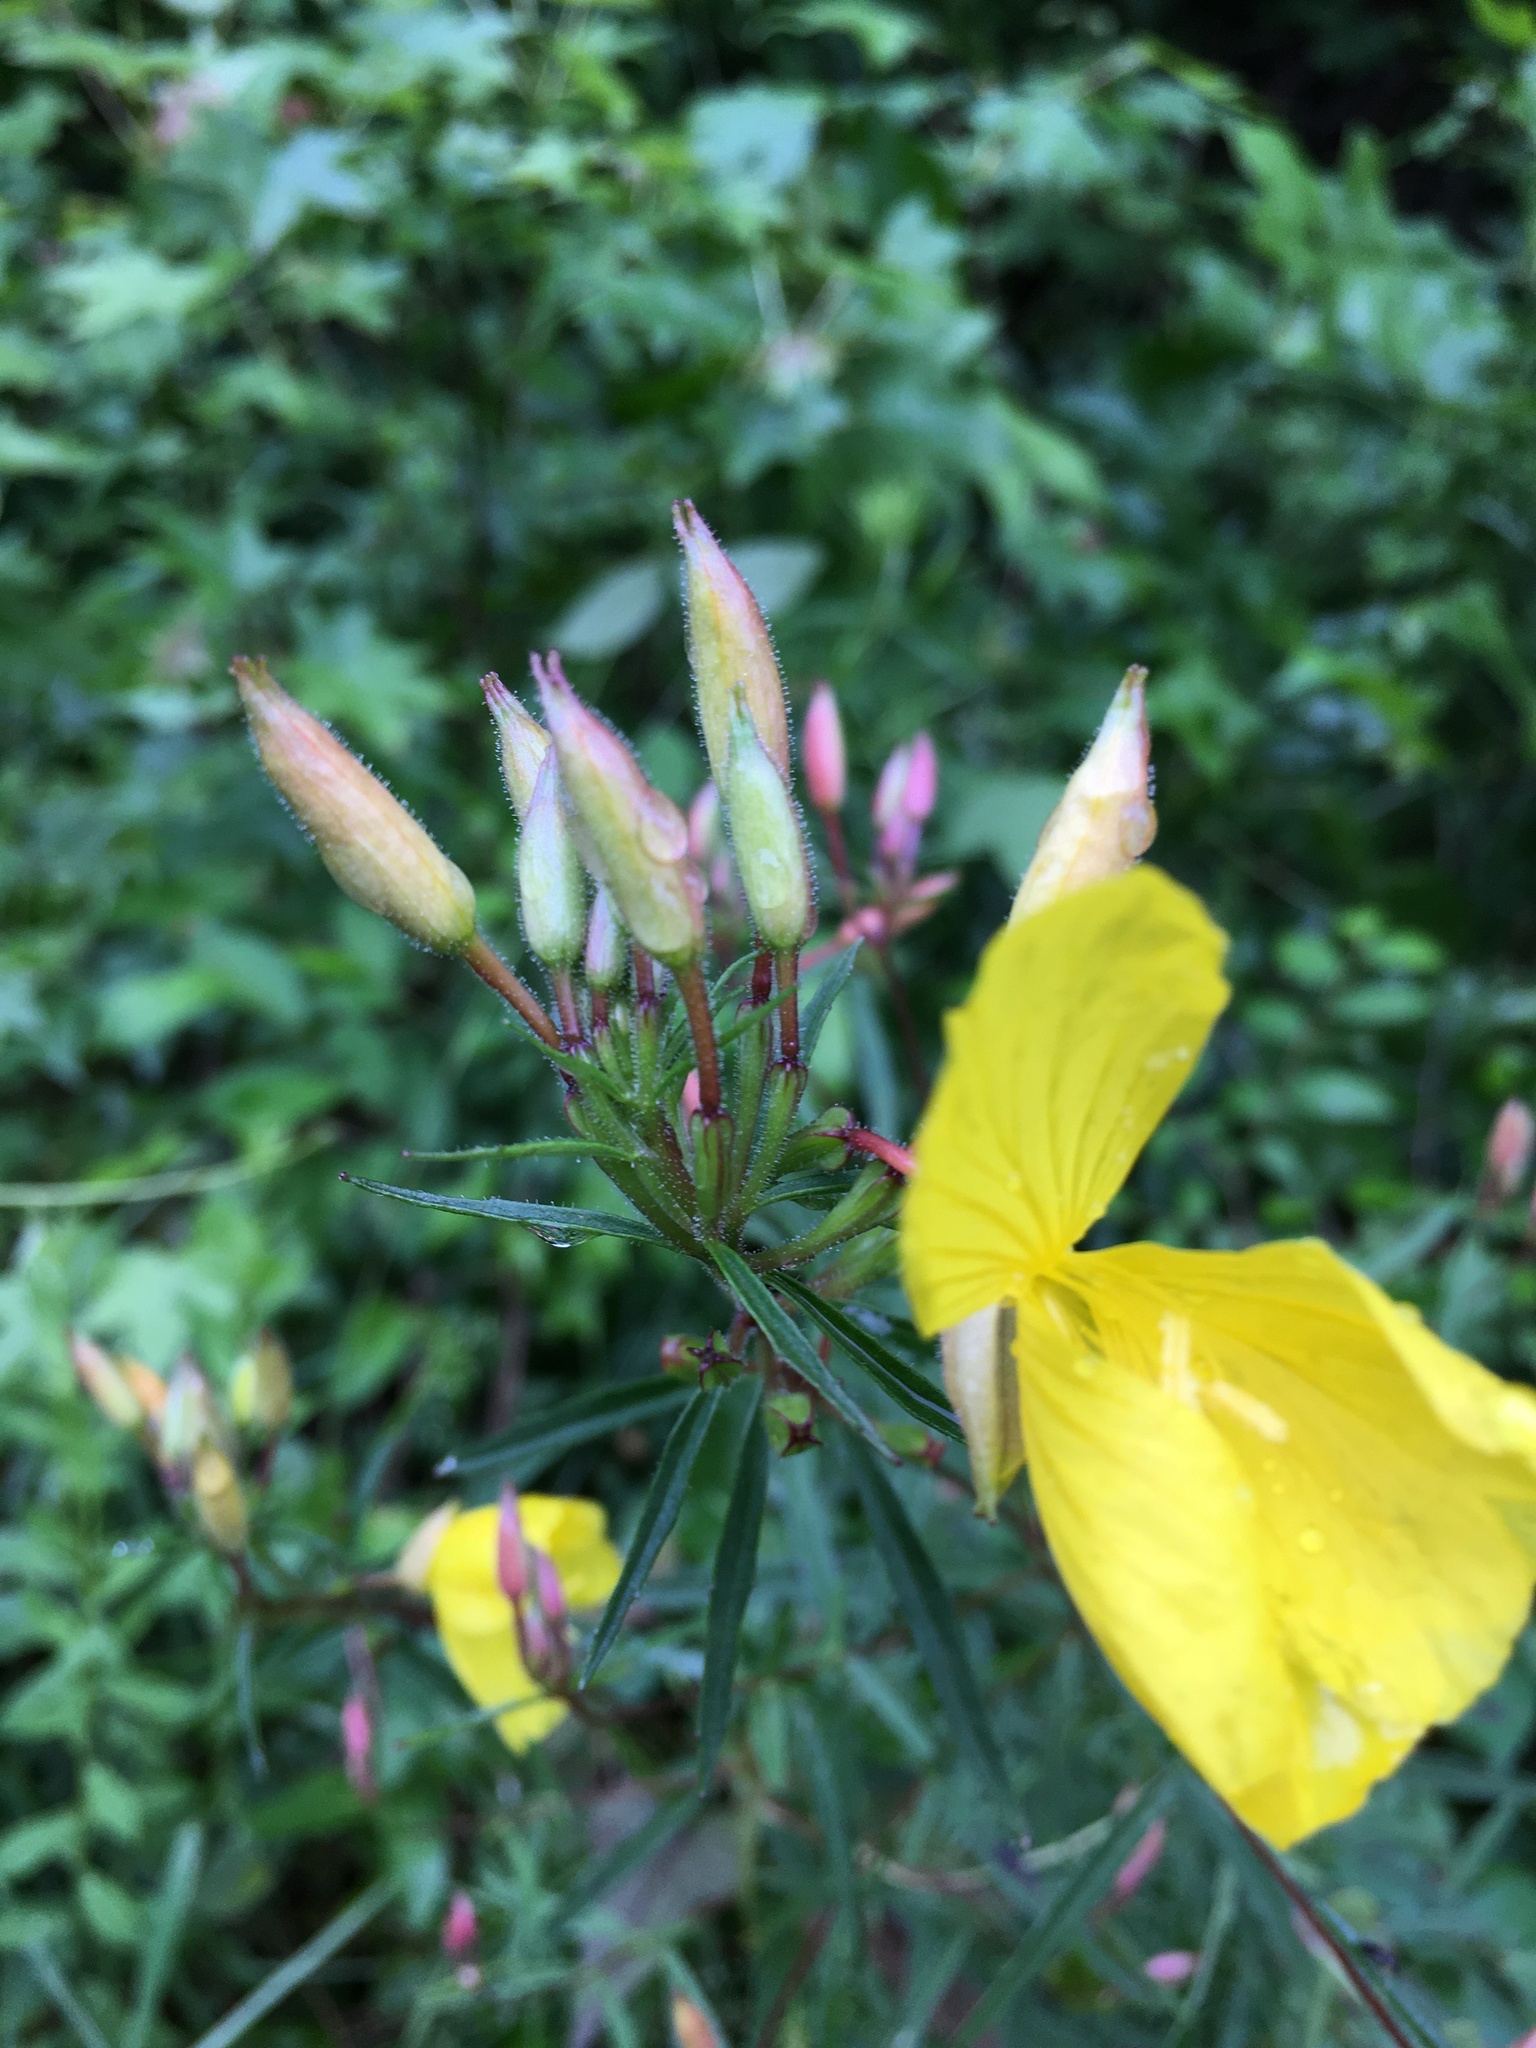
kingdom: Plantae
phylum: Tracheophyta
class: Magnoliopsida
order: Myrtales
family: Onagraceae
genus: Oenothera
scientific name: Oenothera fruticosa
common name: Southern sundrops
